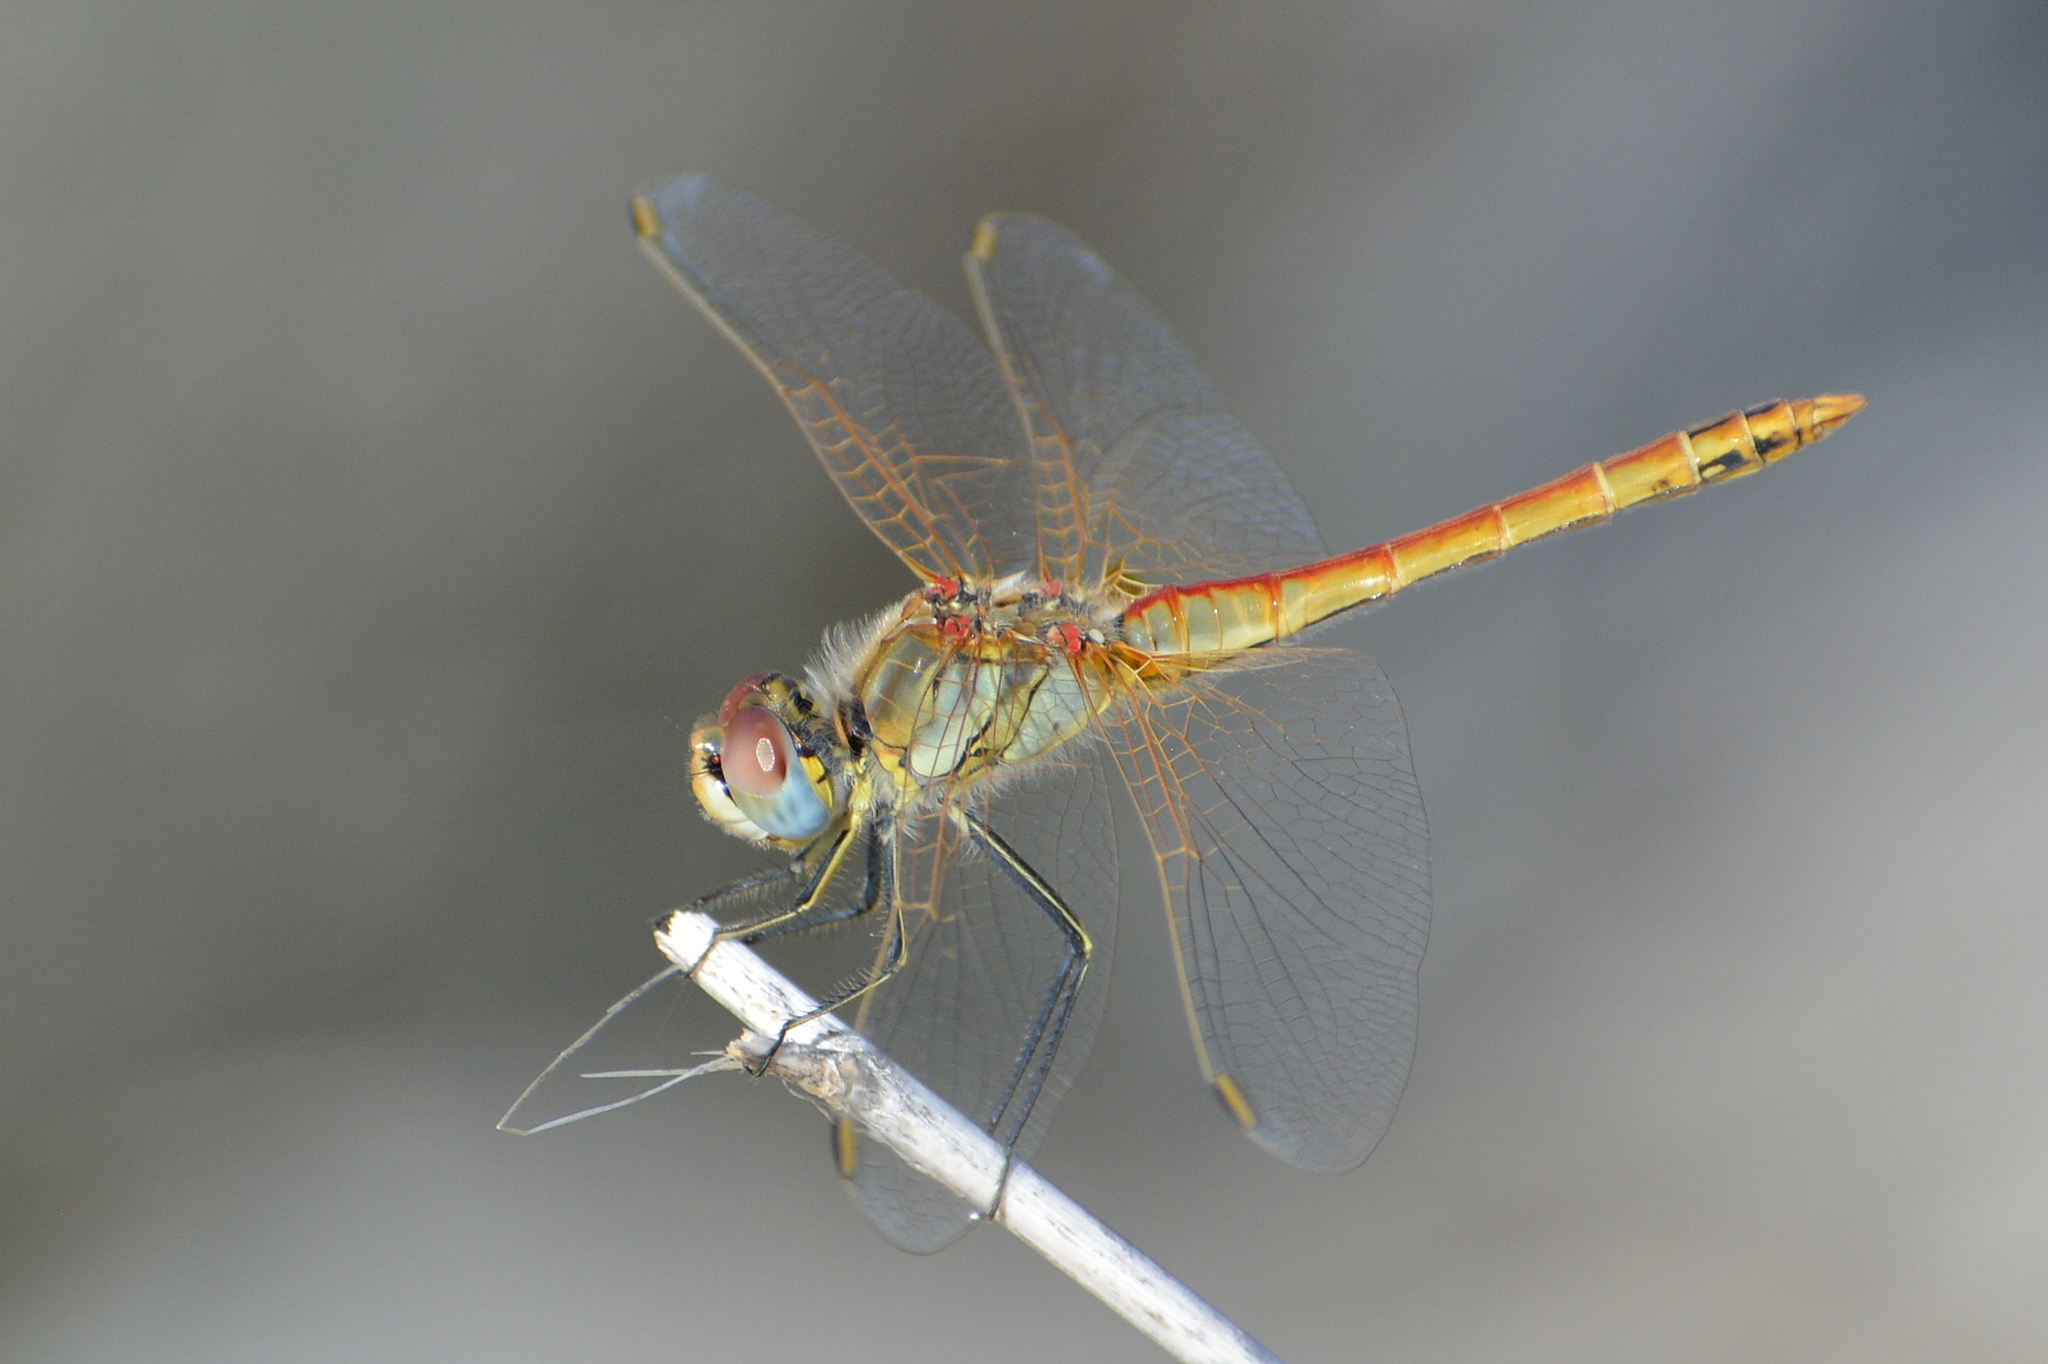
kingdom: Animalia
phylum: Arthropoda
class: Insecta
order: Odonata
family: Libellulidae
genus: Sympetrum
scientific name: Sympetrum fonscolombii
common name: Red-veined darter
